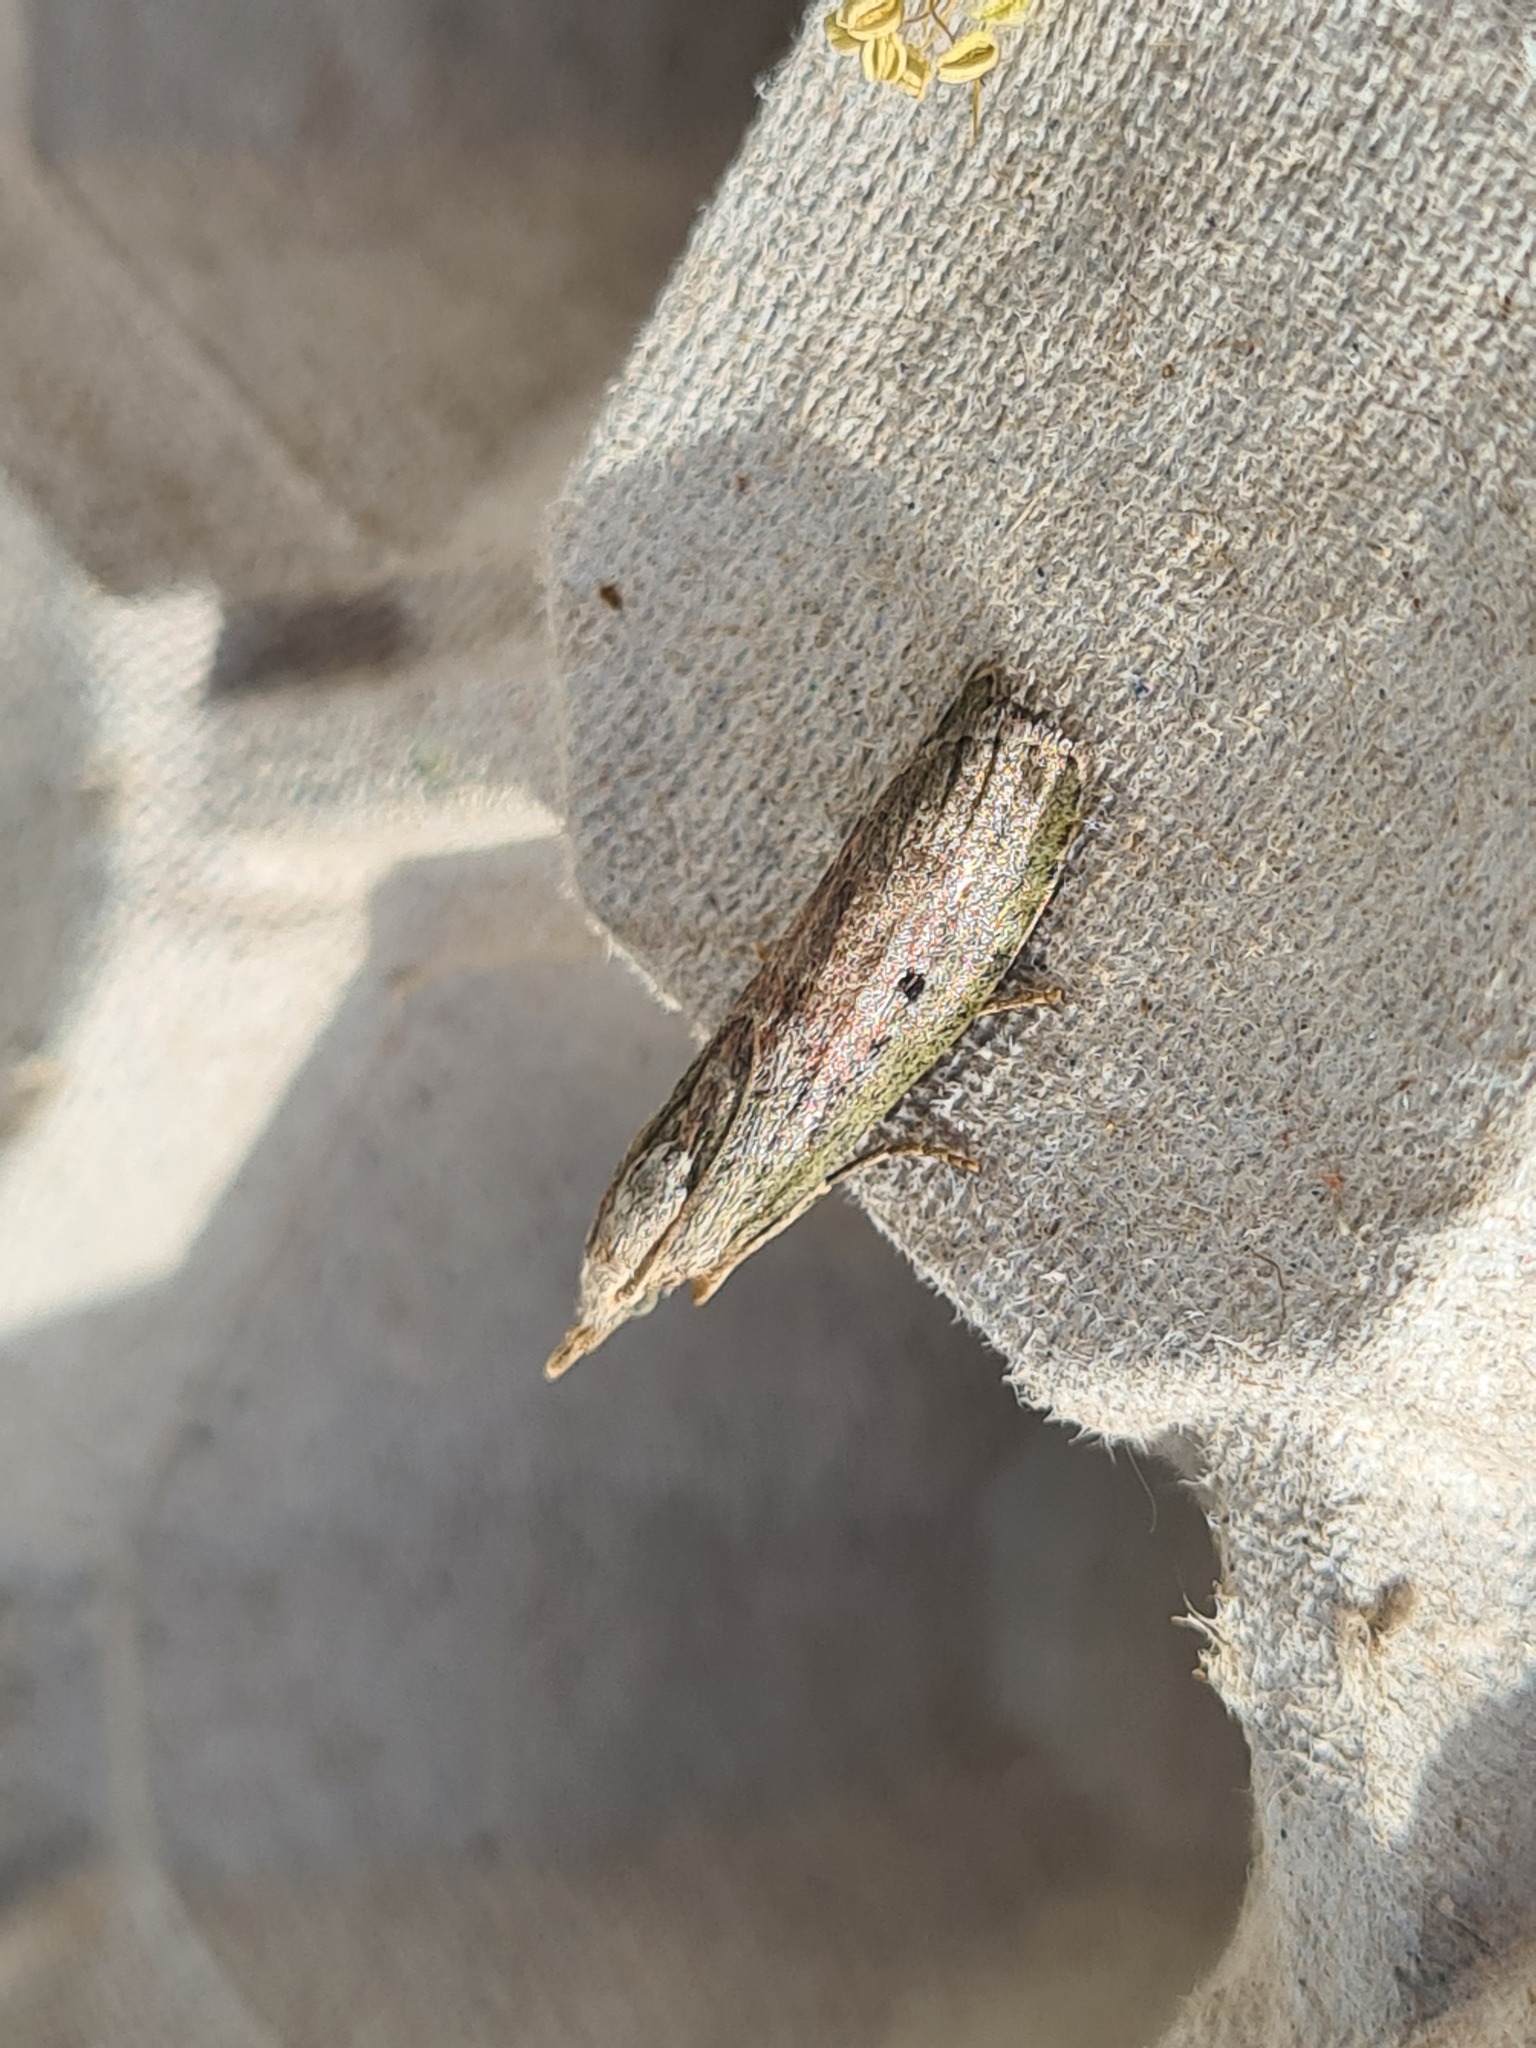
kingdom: Animalia
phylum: Arthropoda
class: Insecta
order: Lepidoptera
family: Pyralidae
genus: Aphomia
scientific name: Aphomia sociella
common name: Bee moth
